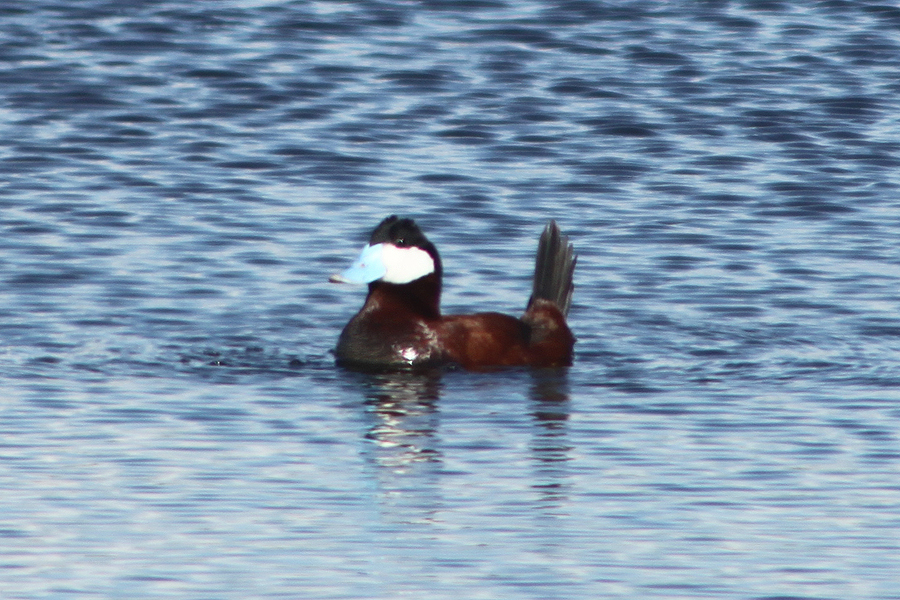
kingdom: Animalia
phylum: Chordata
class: Aves
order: Anseriformes
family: Anatidae
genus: Oxyura
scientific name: Oxyura jamaicensis
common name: Ruddy duck
